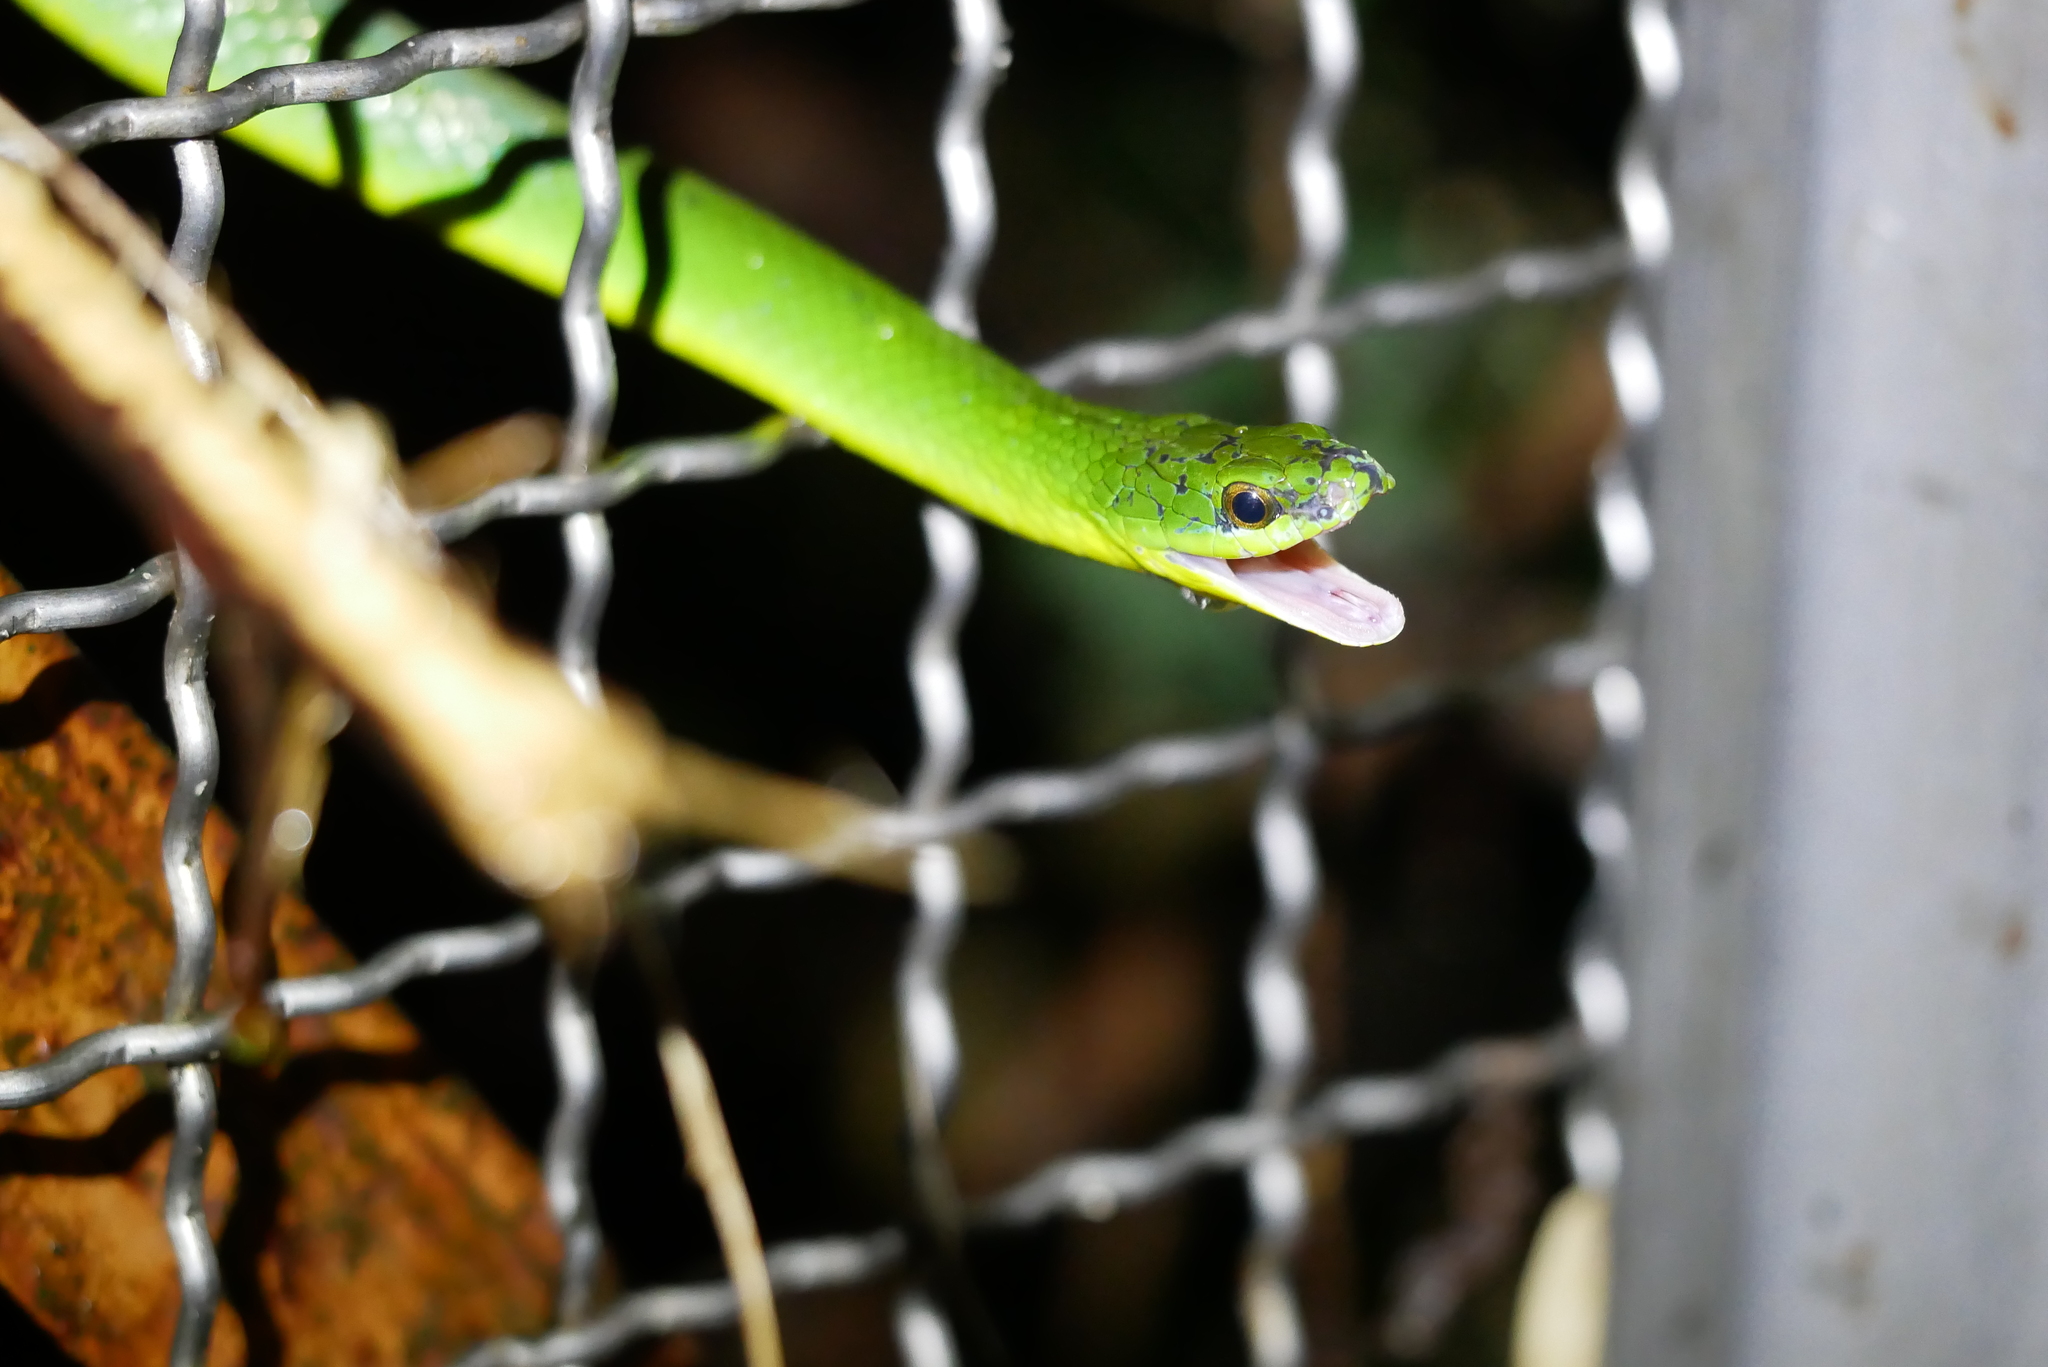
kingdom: Animalia
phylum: Chordata
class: Squamata
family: Colubridae
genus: Ptyas
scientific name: Ptyas major
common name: Chinese green snake
